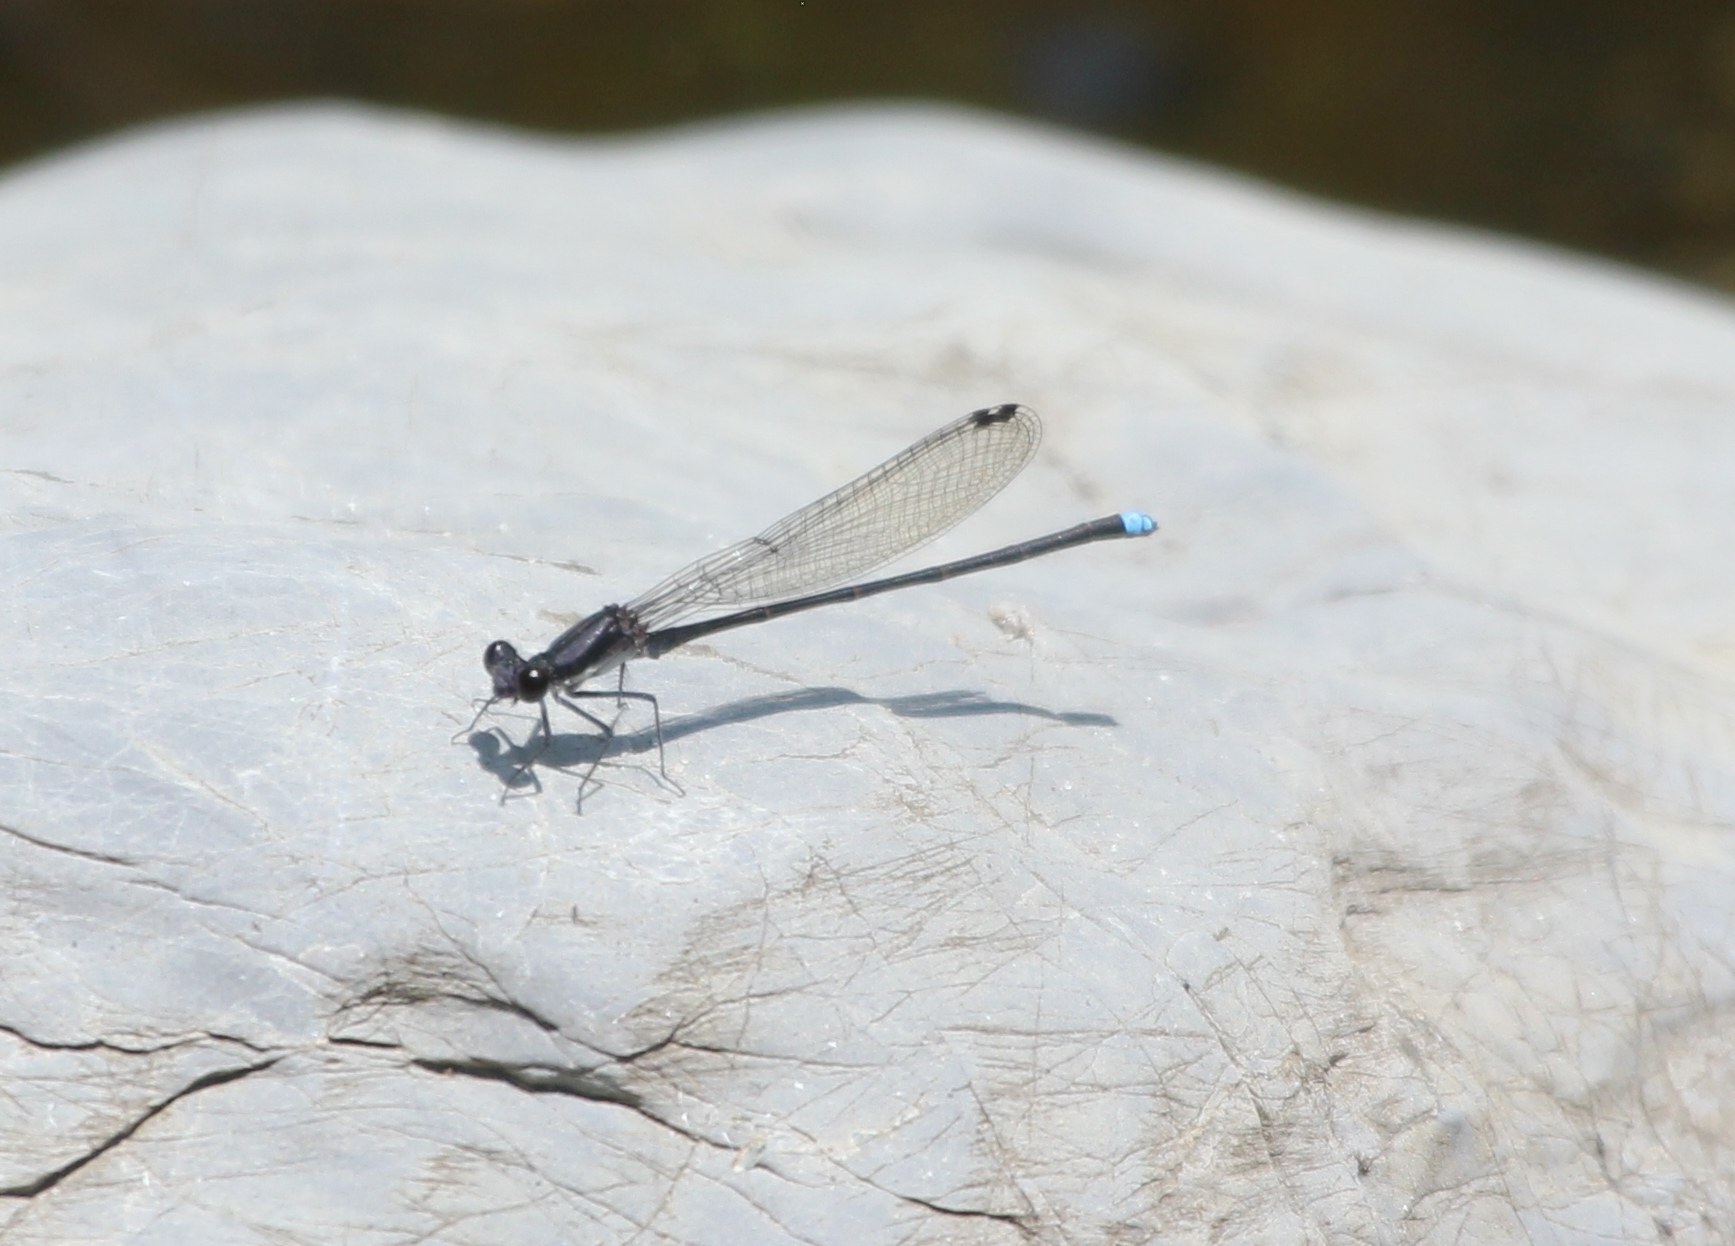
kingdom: Animalia
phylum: Arthropoda
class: Insecta
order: Odonata
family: Coenagrionidae
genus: Argia
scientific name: Argia tibialis
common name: Blue-tipped dancer
